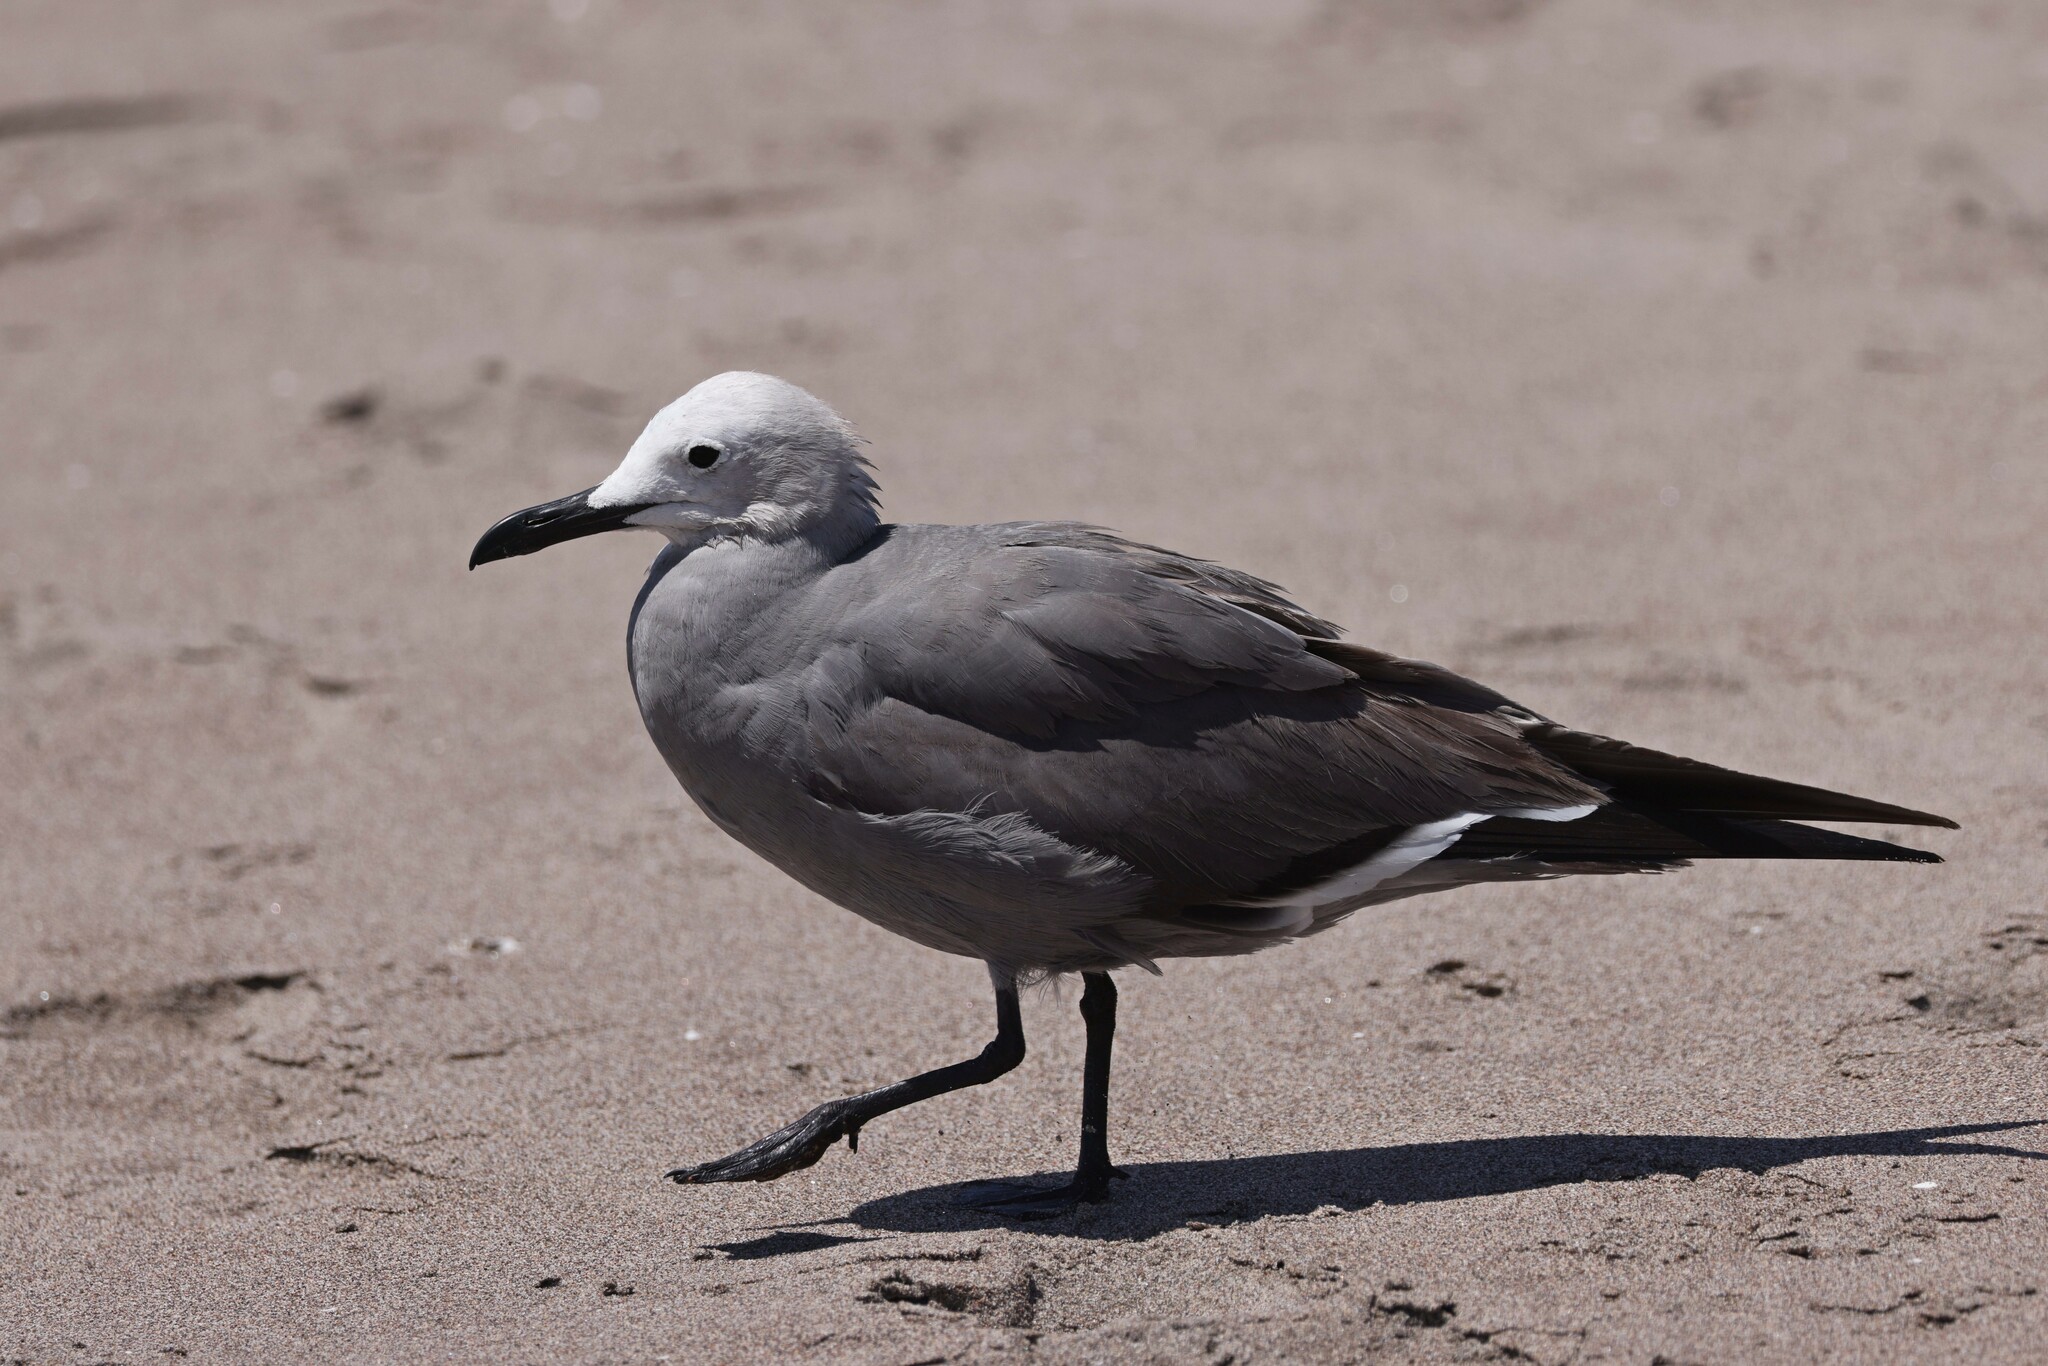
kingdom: Animalia
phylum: Chordata
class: Aves
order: Charadriiformes
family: Laridae
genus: Leucophaeus
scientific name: Leucophaeus modestus
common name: Gray gull
